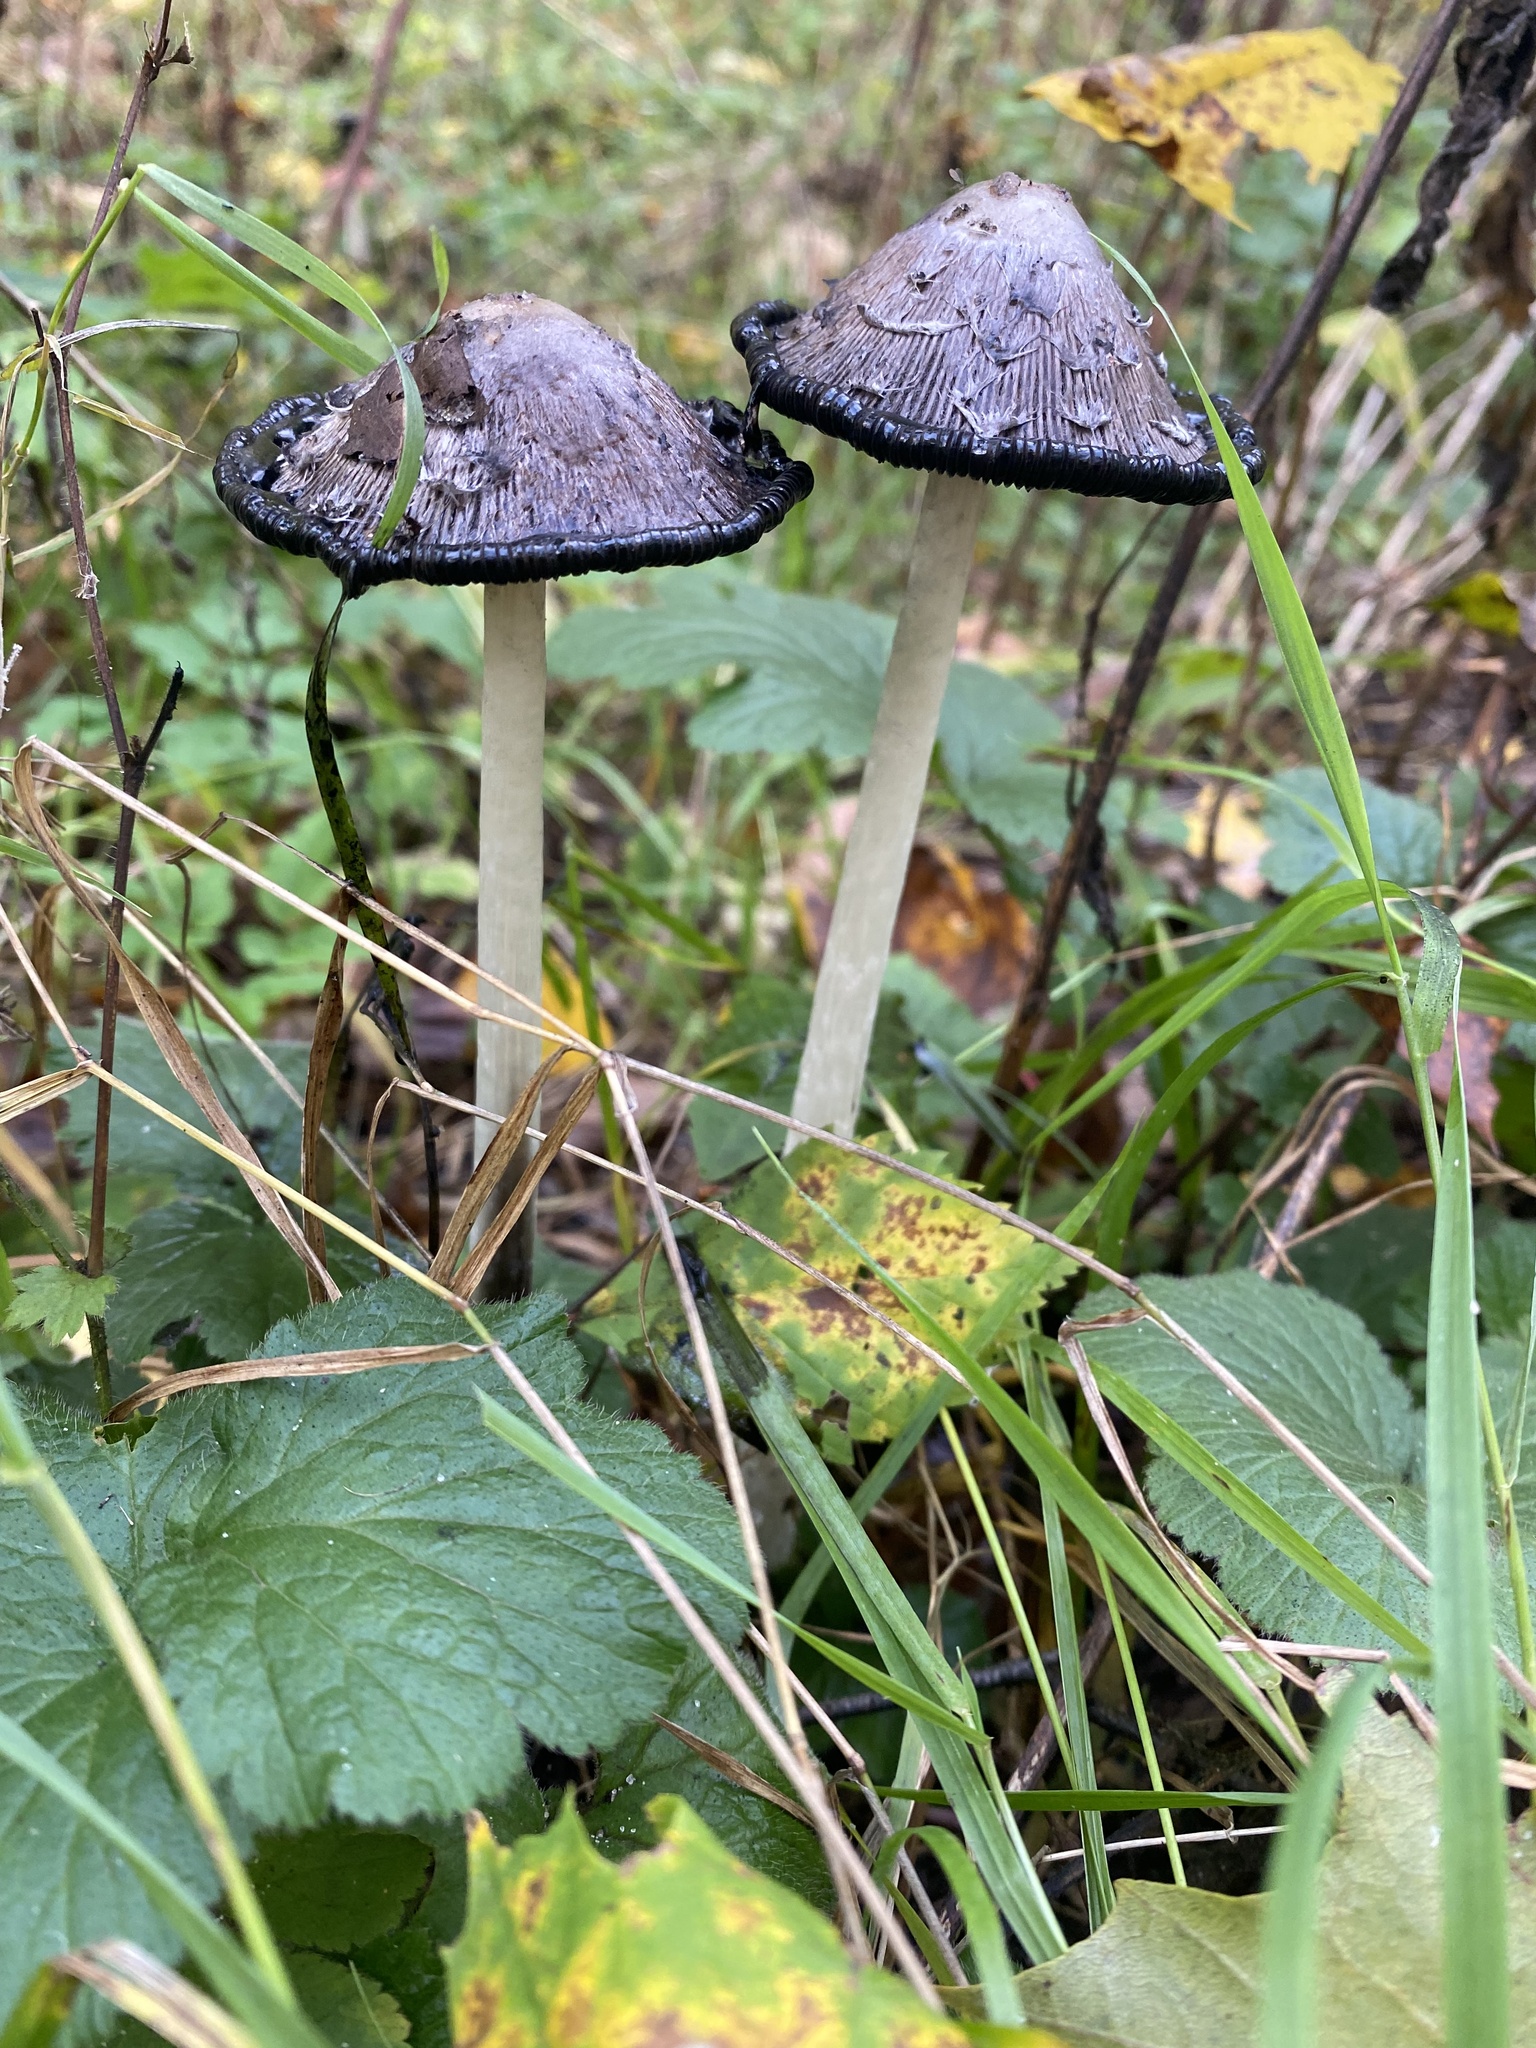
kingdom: Fungi
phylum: Basidiomycota
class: Agaricomycetes
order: Agaricales
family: Agaricaceae
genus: Coprinus
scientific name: Coprinus comatus
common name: Lawyer's wig
